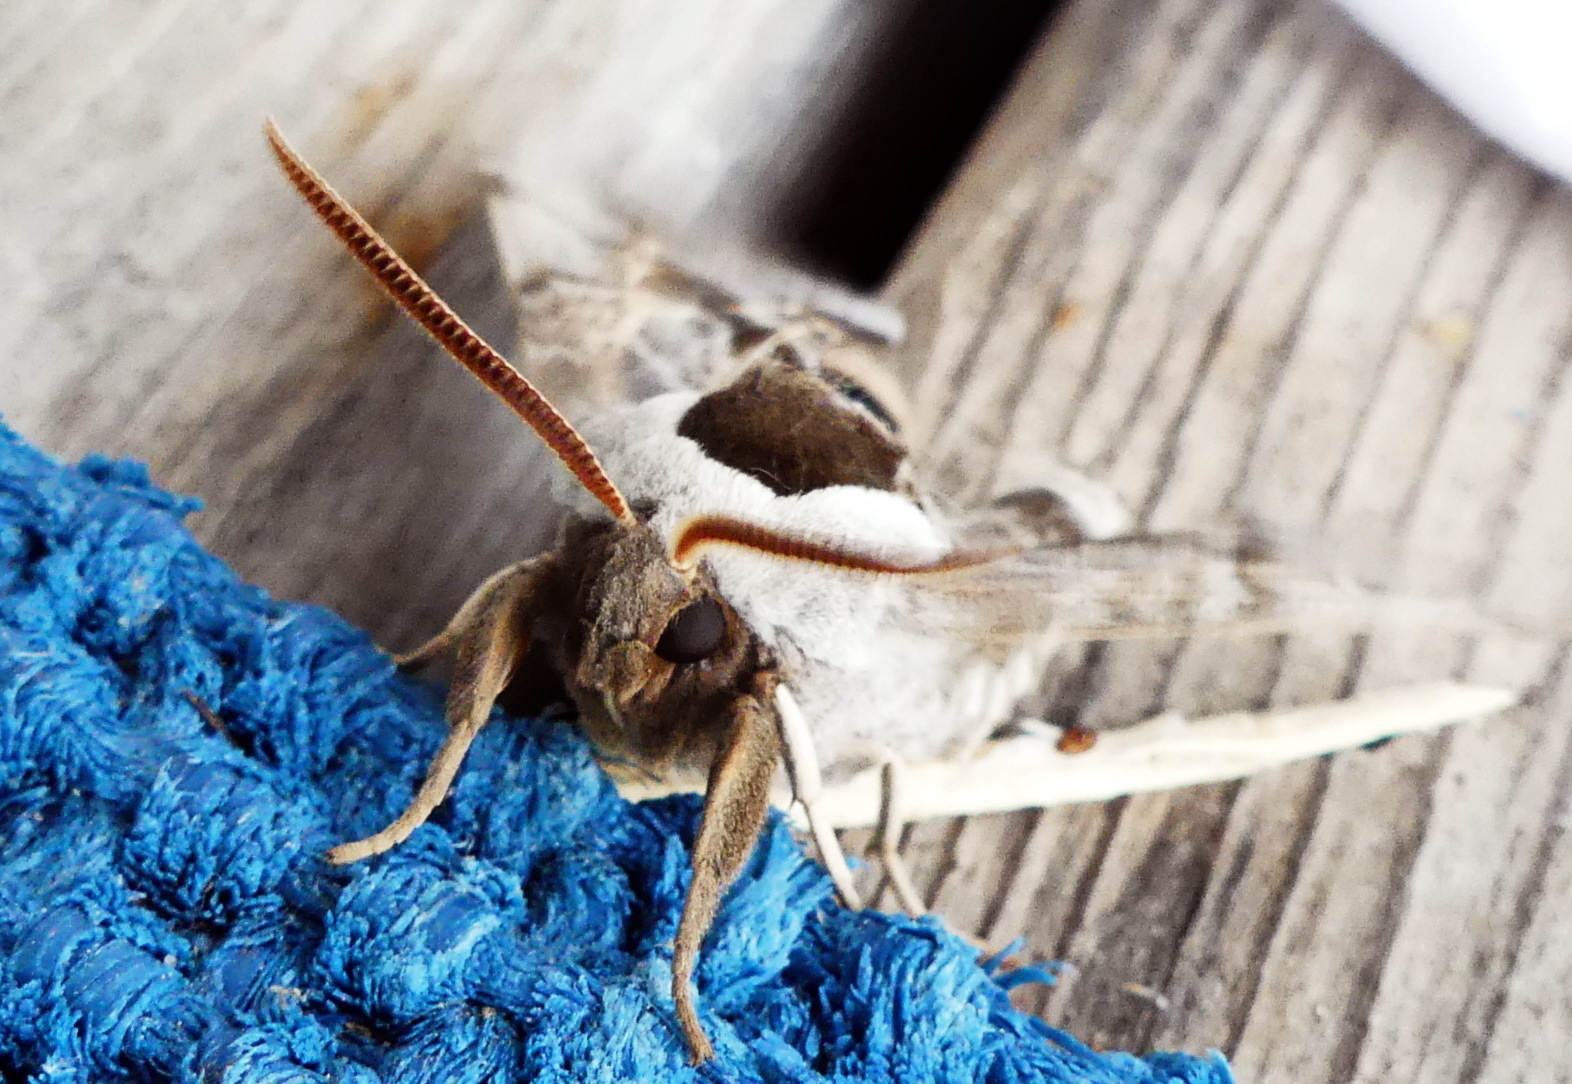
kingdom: Animalia
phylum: Arthropoda
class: Insecta
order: Lepidoptera
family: Sphingidae
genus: Smerinthus
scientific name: Smerinthus cerisyi
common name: Cerisy's sphinx moth
